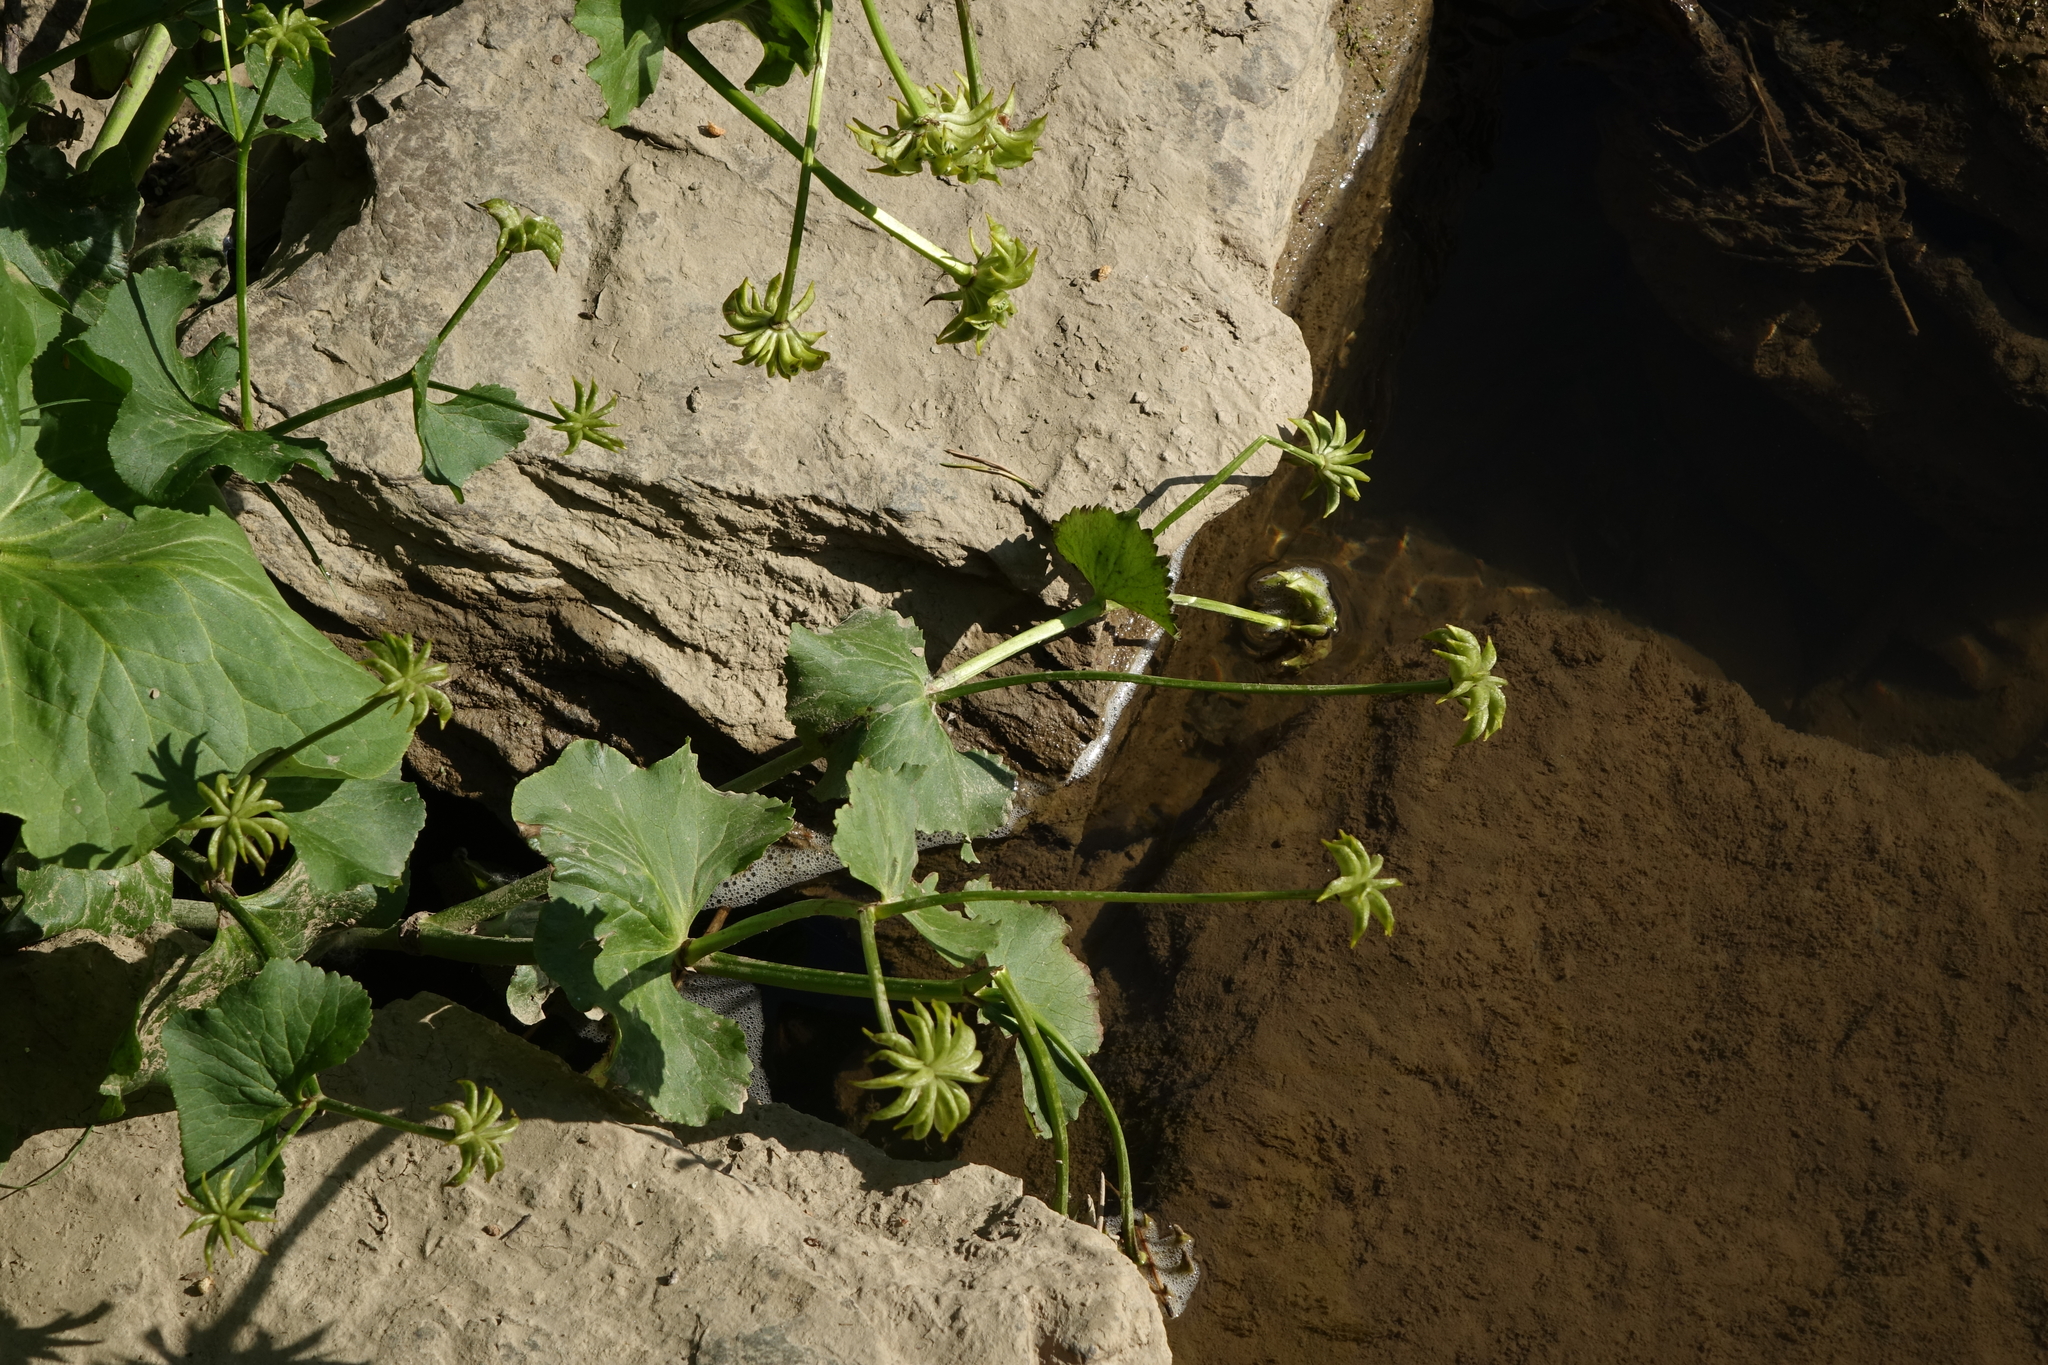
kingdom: Plantae
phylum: Tracheophyta
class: Magnoliopsida
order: Ranunculales
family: Ranunculaceae
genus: Caltha
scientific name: Caltha palustris
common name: Marsh marigold
